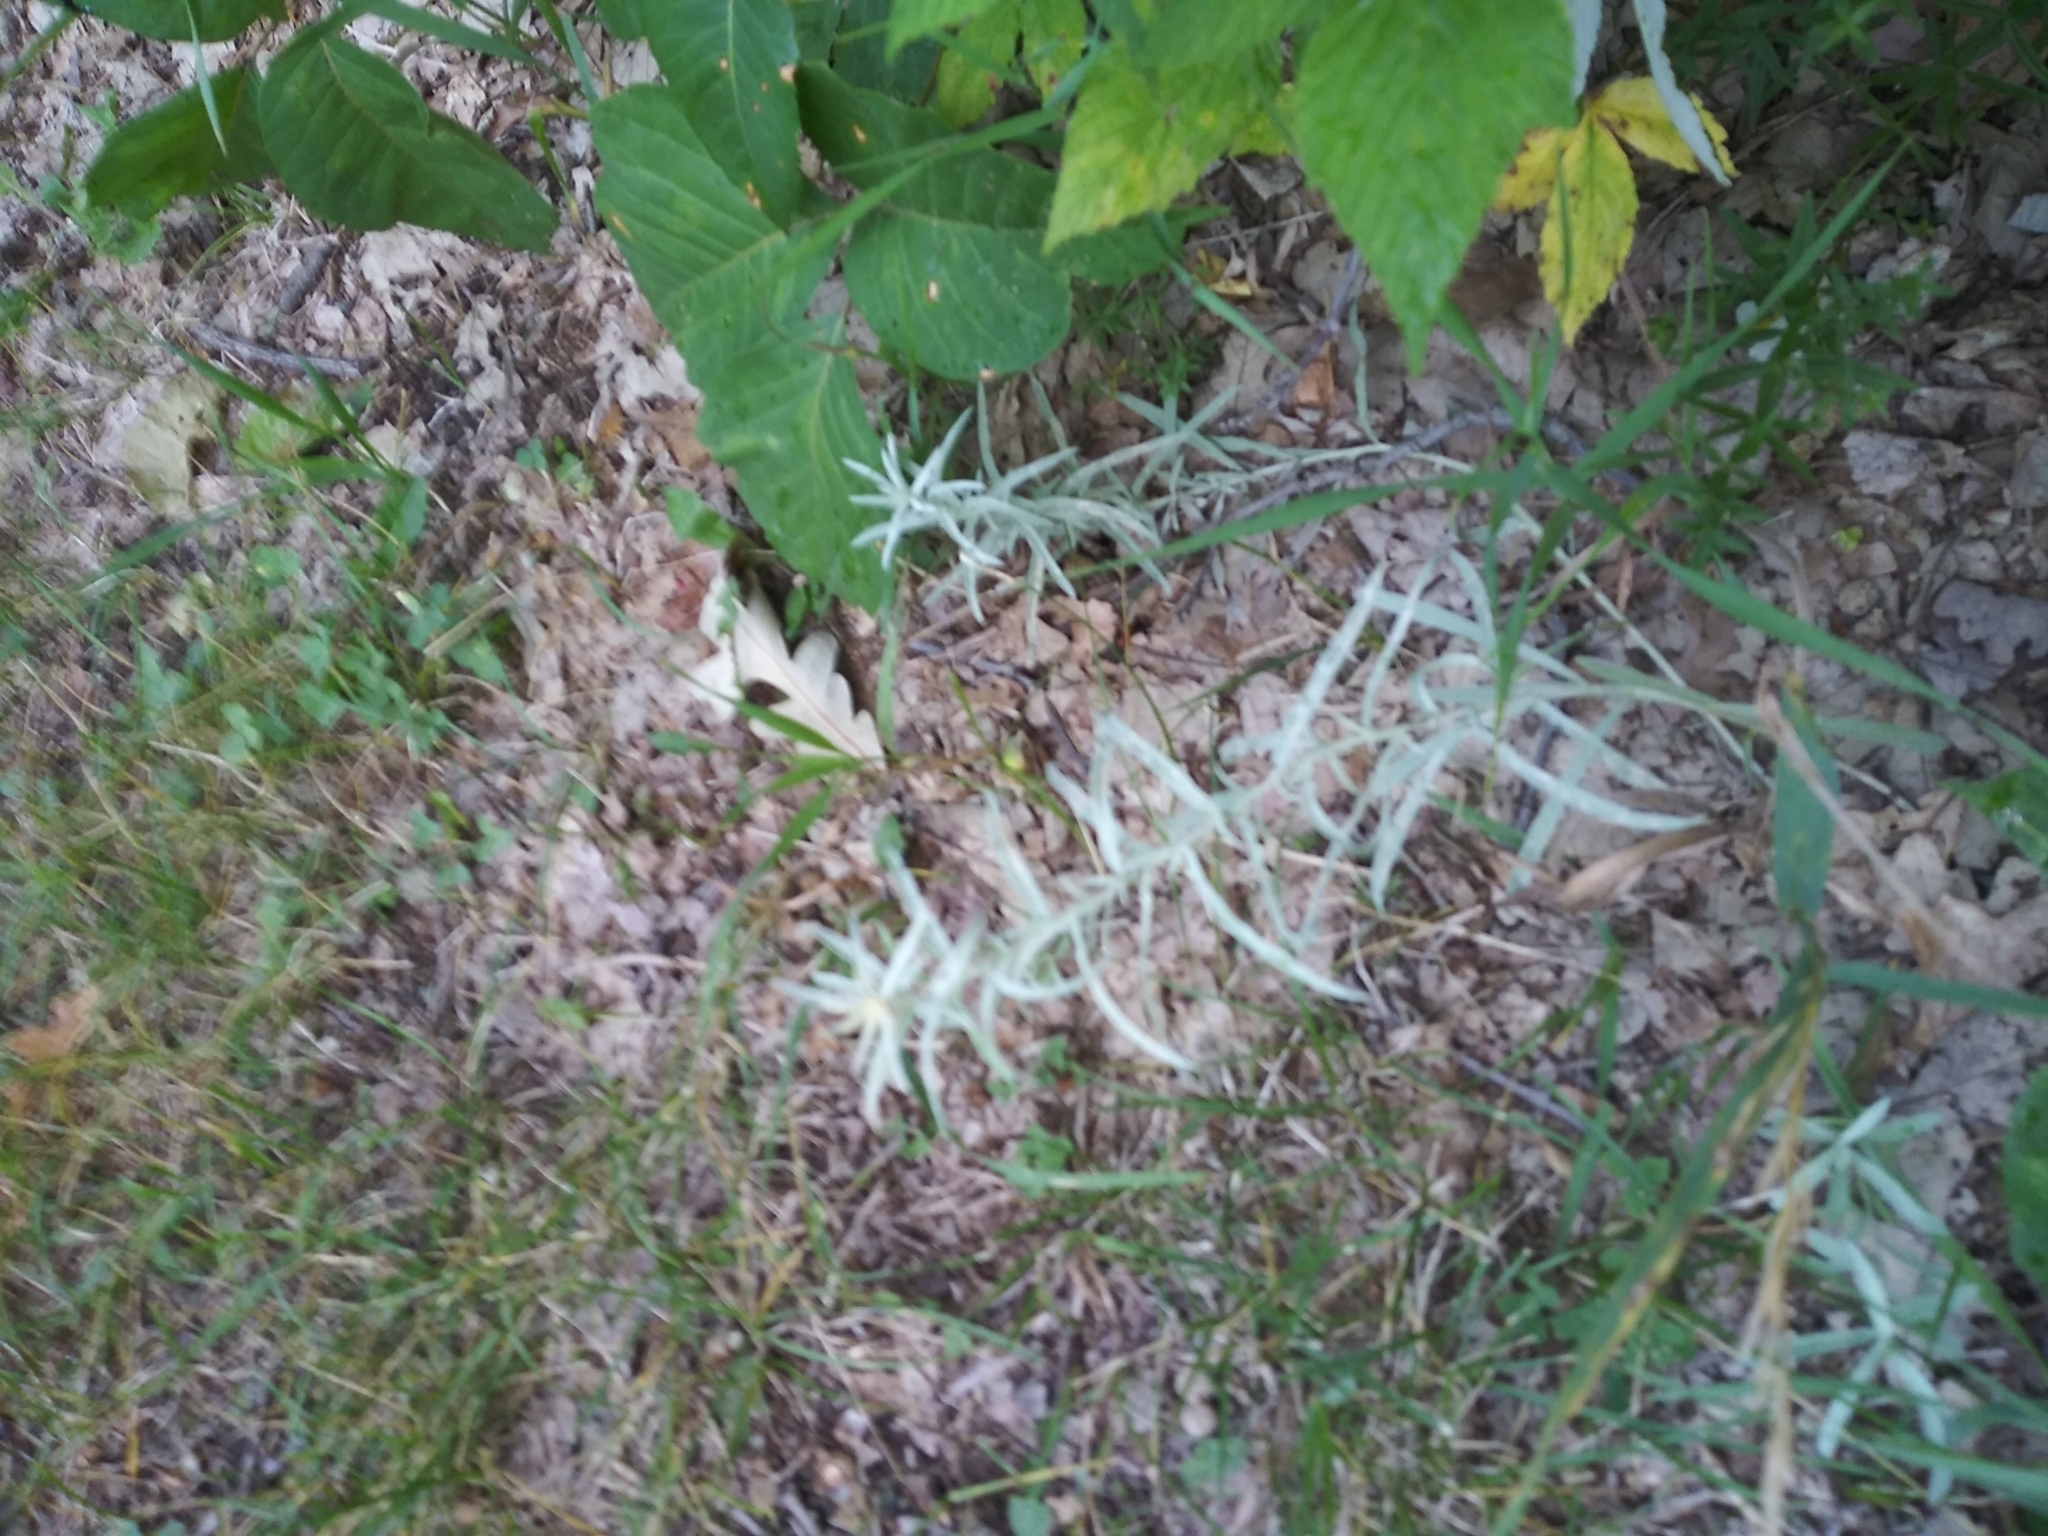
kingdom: Plantae
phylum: Tracheophyta
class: Magnoliopsida
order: Asterales
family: Asteraceae
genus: Artemisia
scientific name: Artemisia ludoviciana
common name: Western mugwort
